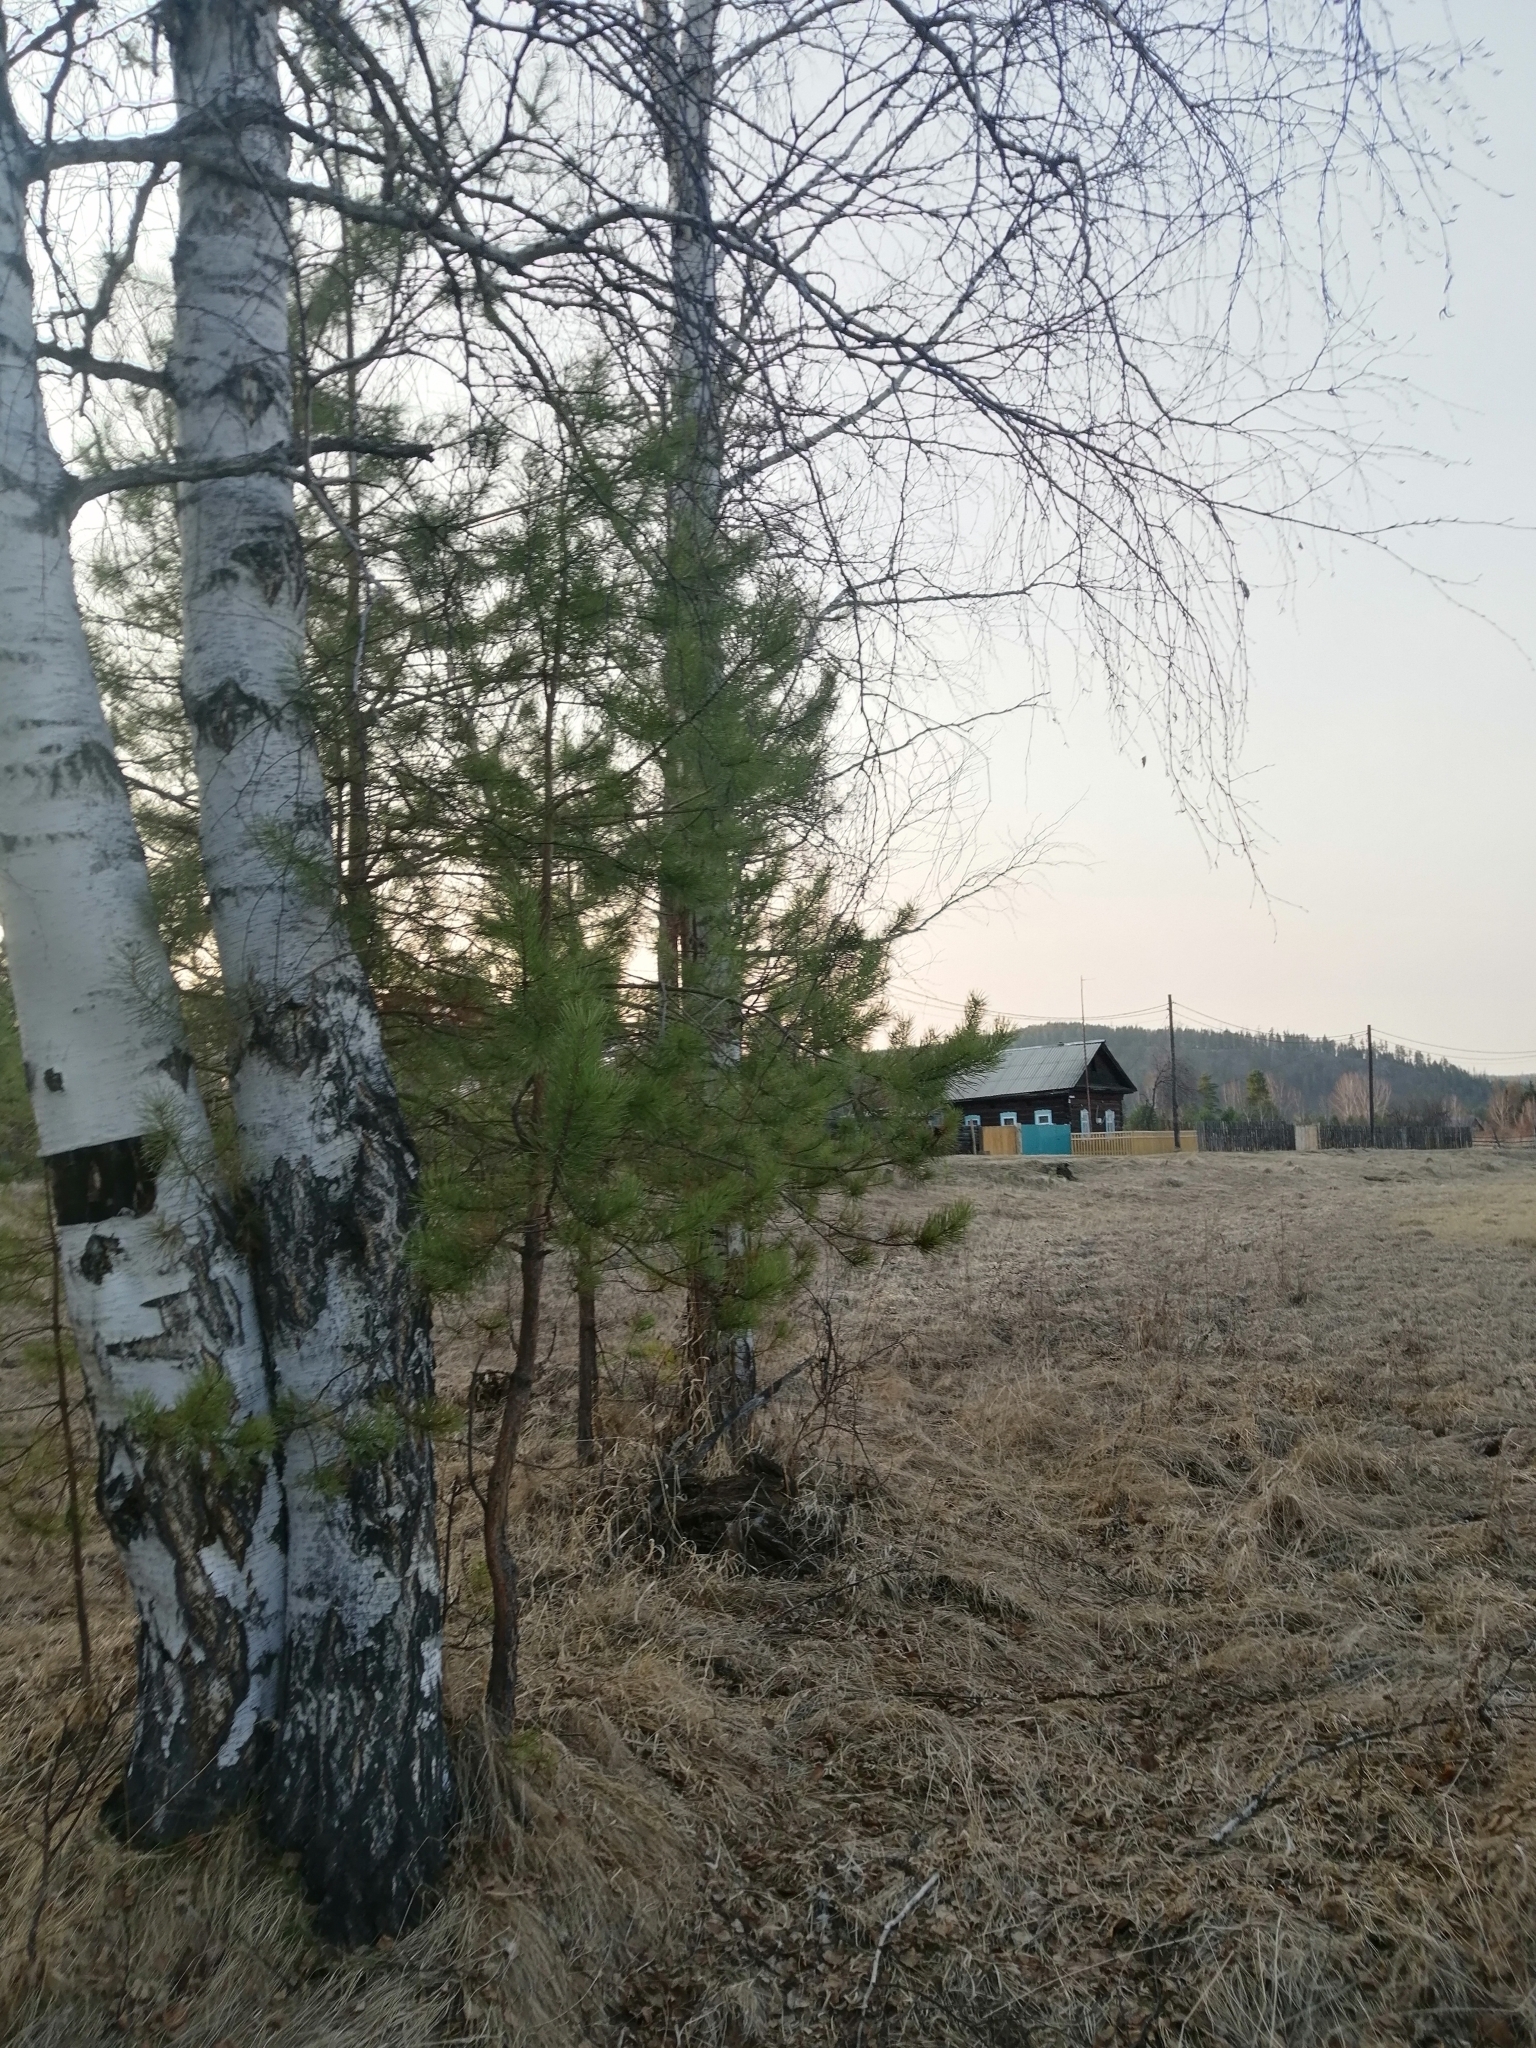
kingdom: Plantae
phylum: Tracheophyta
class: Pinopsida
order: Pinales
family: Pinaceae
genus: Pinus
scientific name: Pinus sylvestris
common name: Scots pine
